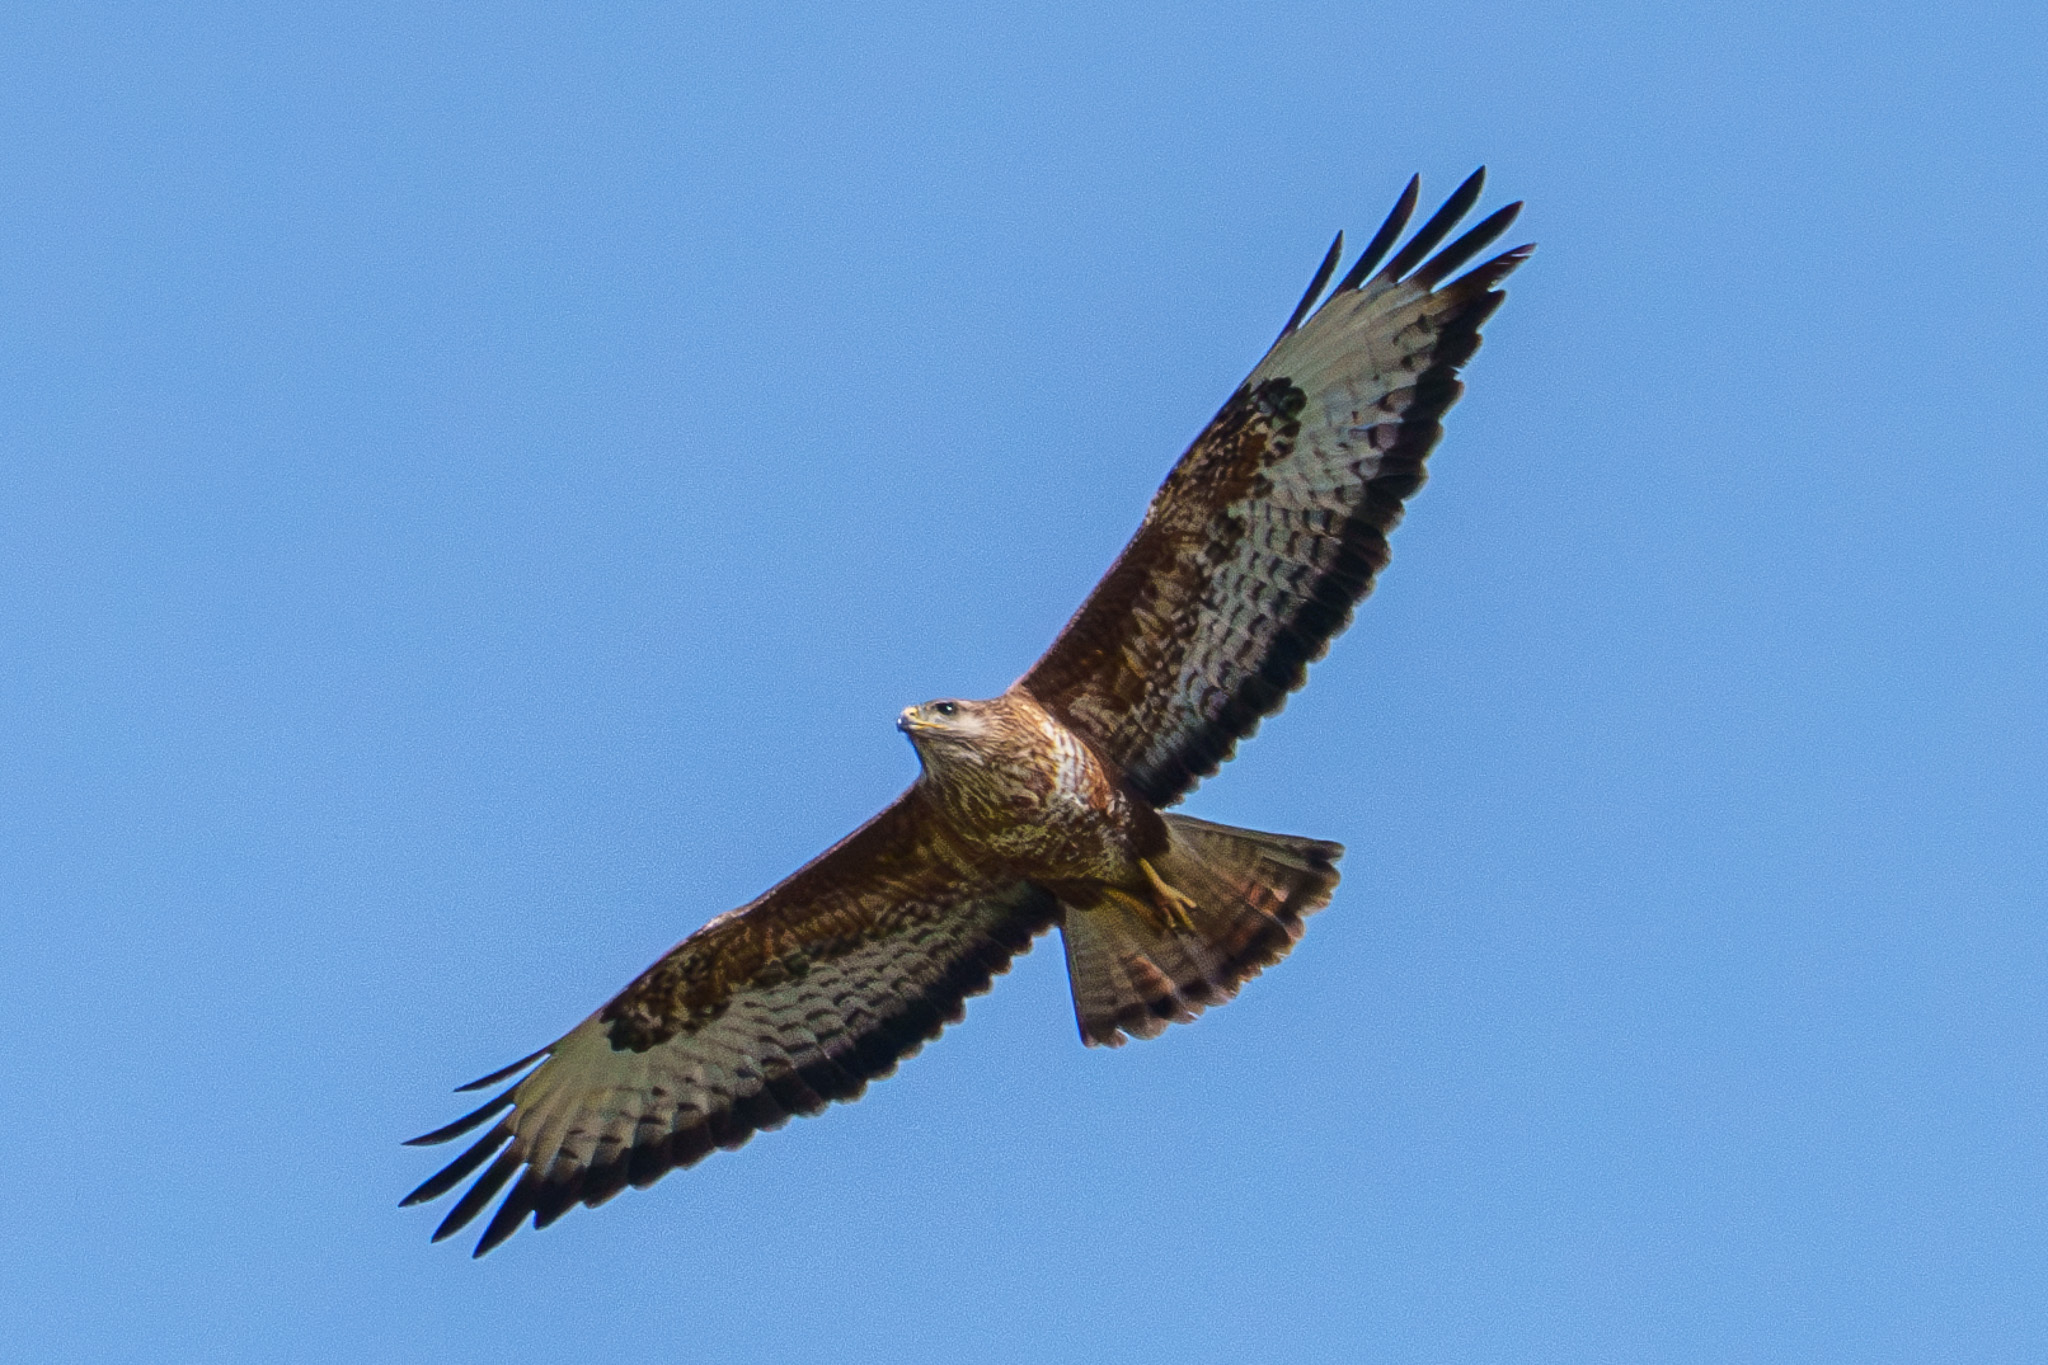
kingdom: Animalia
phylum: Chordata
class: Aves
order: Accipitriformes
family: Accipitridae
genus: Buteo
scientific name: Buteo buteo
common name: Common buzzard
